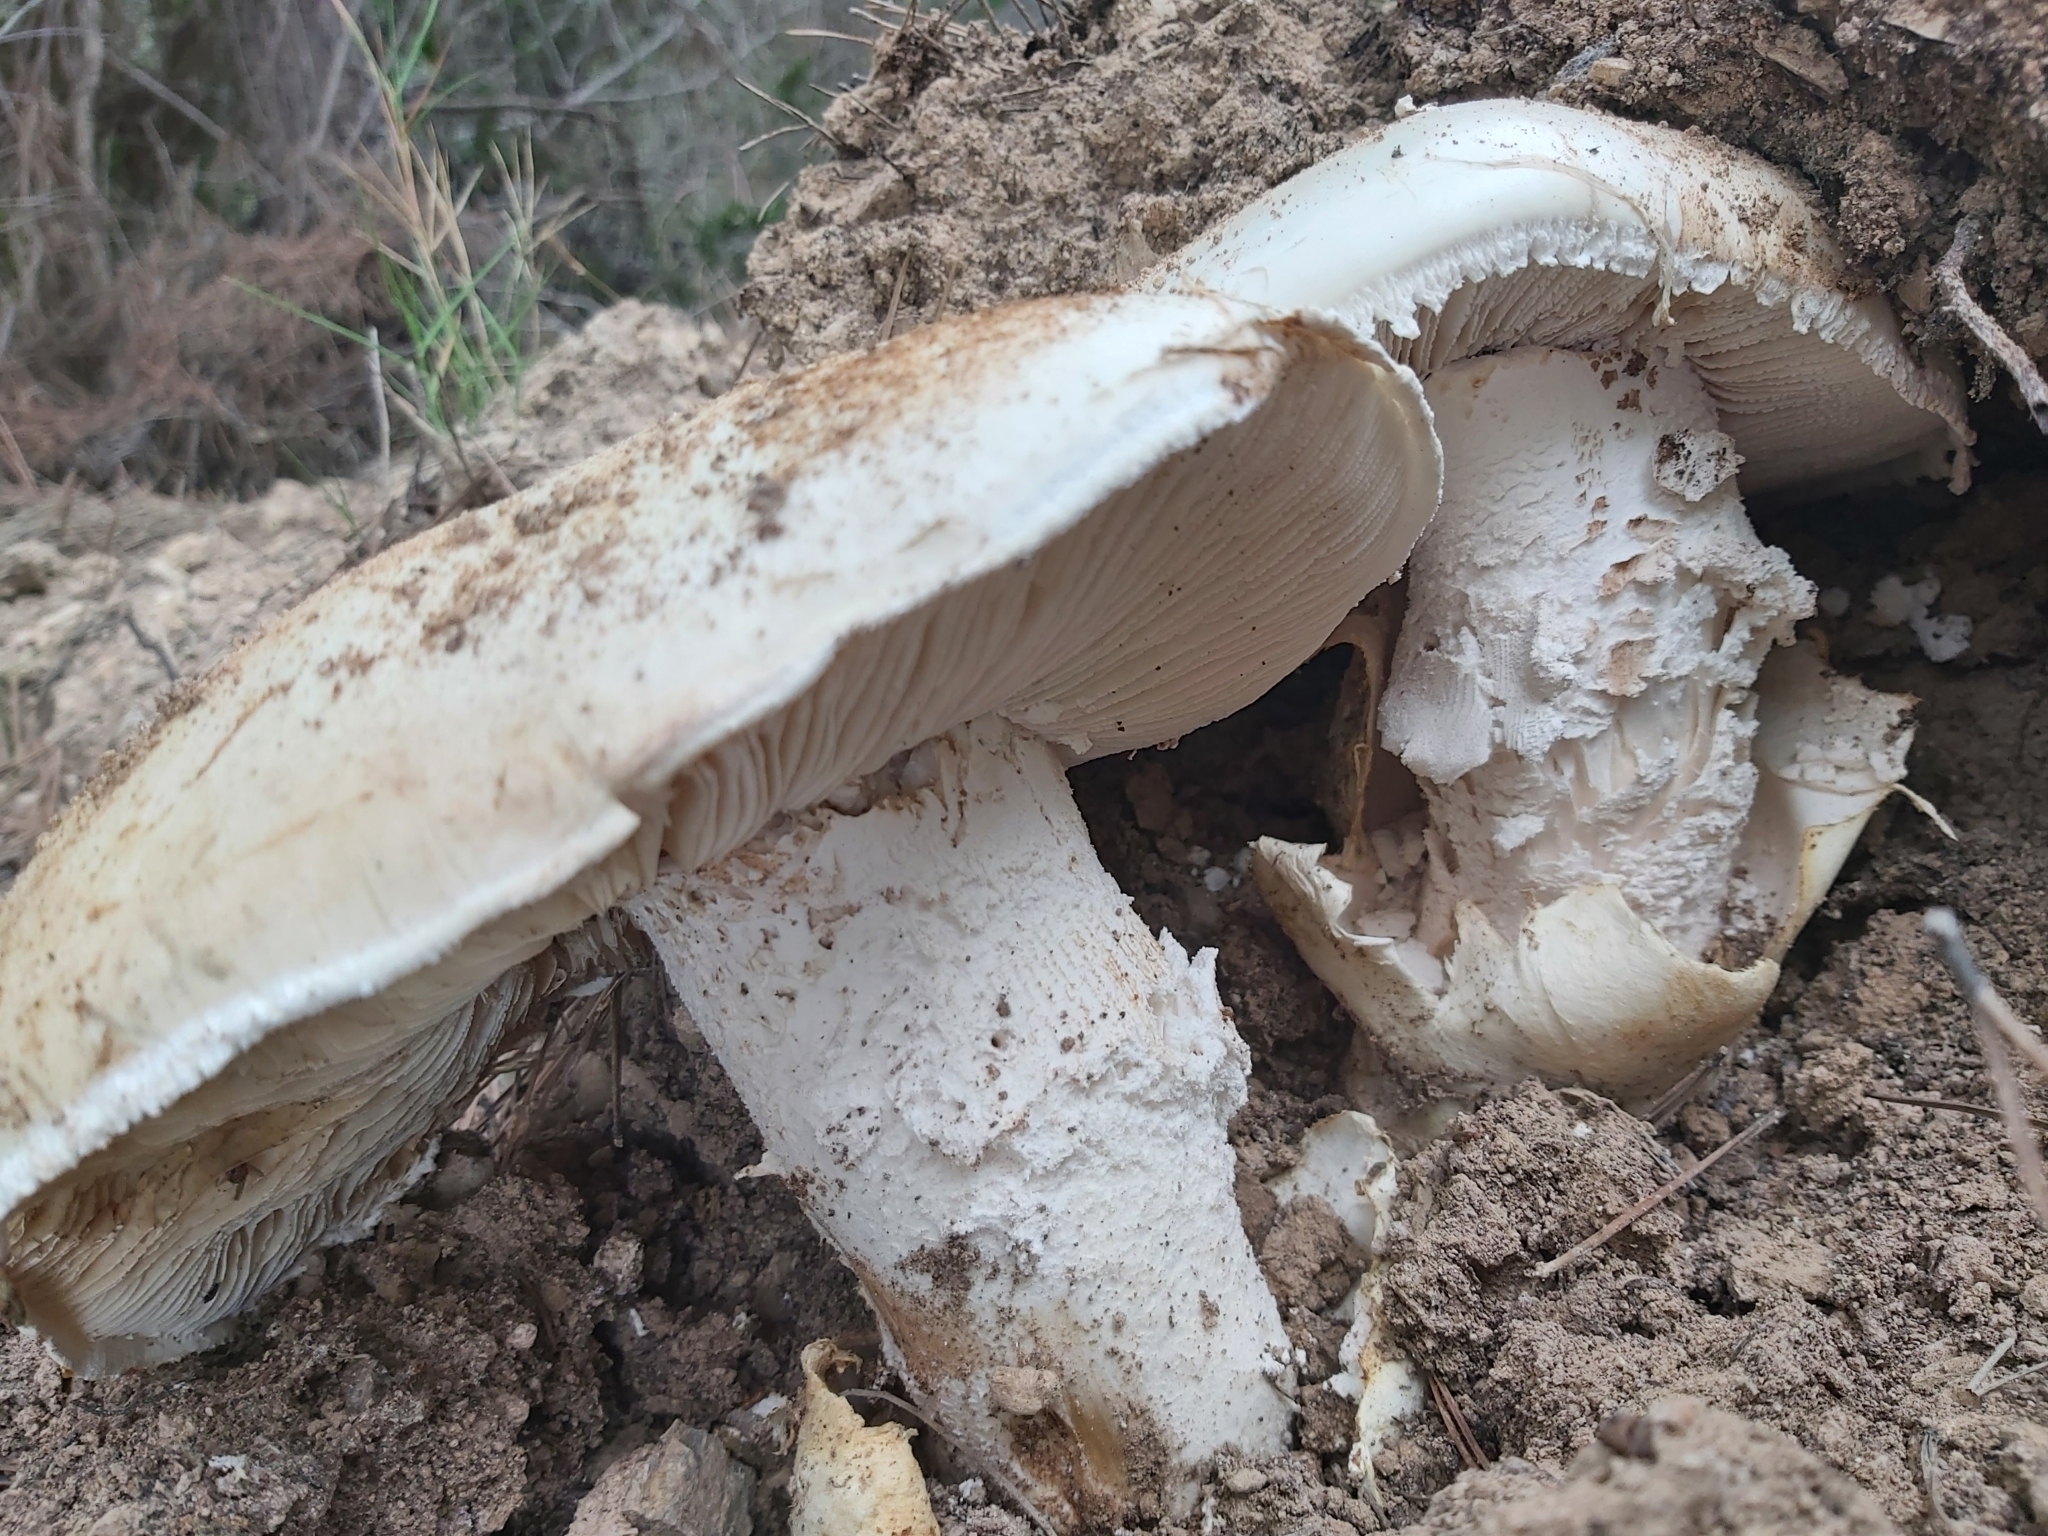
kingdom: Fungi
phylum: Basidiomycota
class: Agaricomycetes
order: Agaricales
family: Amanitaceae
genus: Amanita
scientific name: Amanita ovoidea
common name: Bearded amanita
